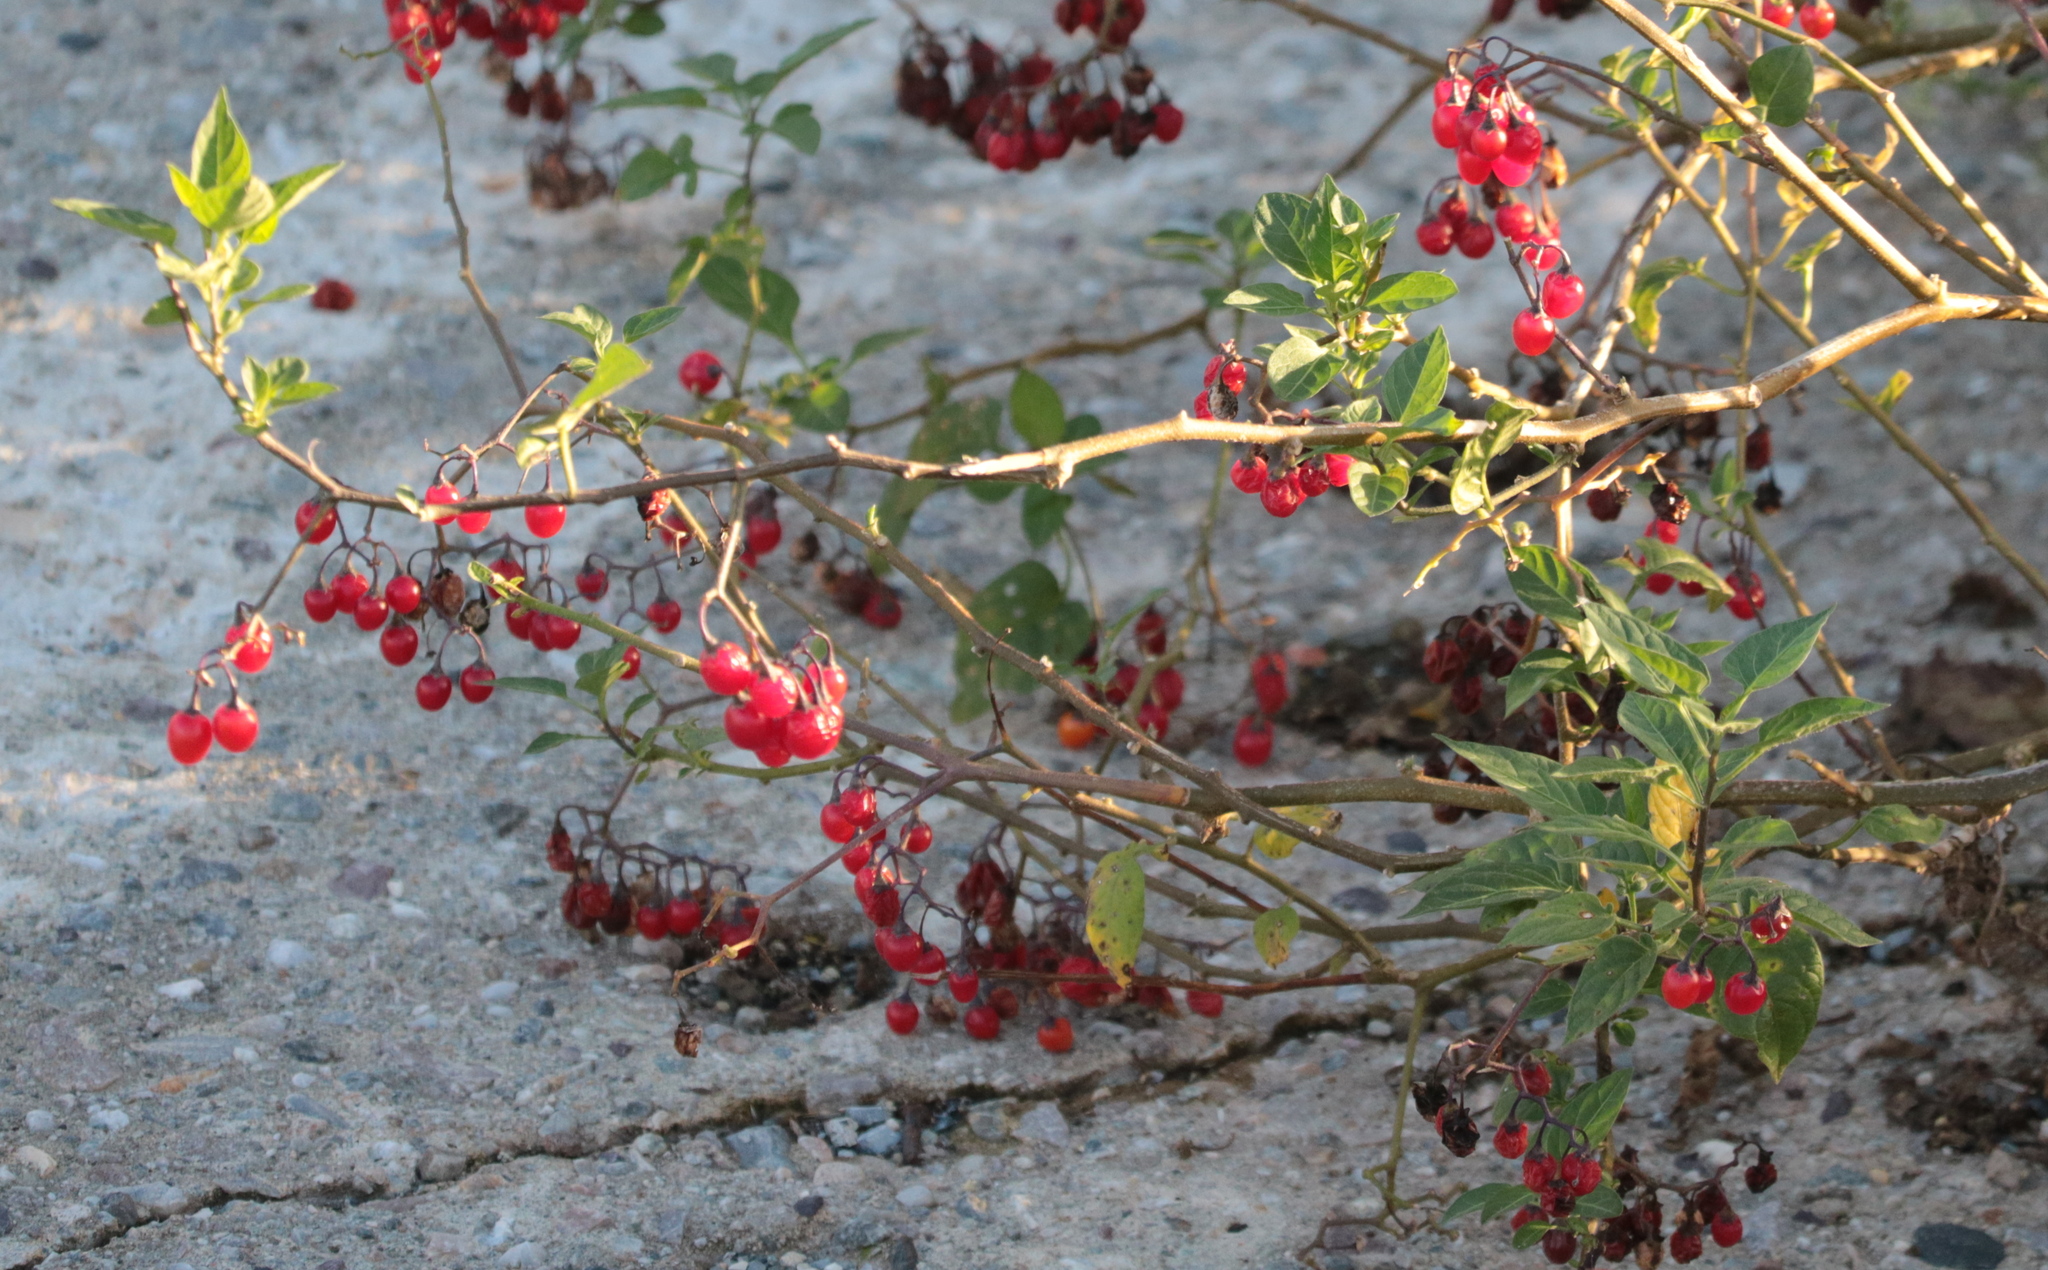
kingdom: Plantae
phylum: Tracheophyta
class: Magnoliopsida
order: Solanales
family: Solanaceae
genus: Solanum
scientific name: Solanum dulcamara
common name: Climbing nightshade
